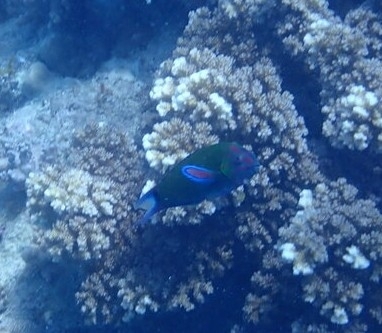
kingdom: Animalia
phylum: Chordata
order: Perciformes
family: Labridae
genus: Thalassoma
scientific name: Thalassoma lunare
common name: Blue wrasse
